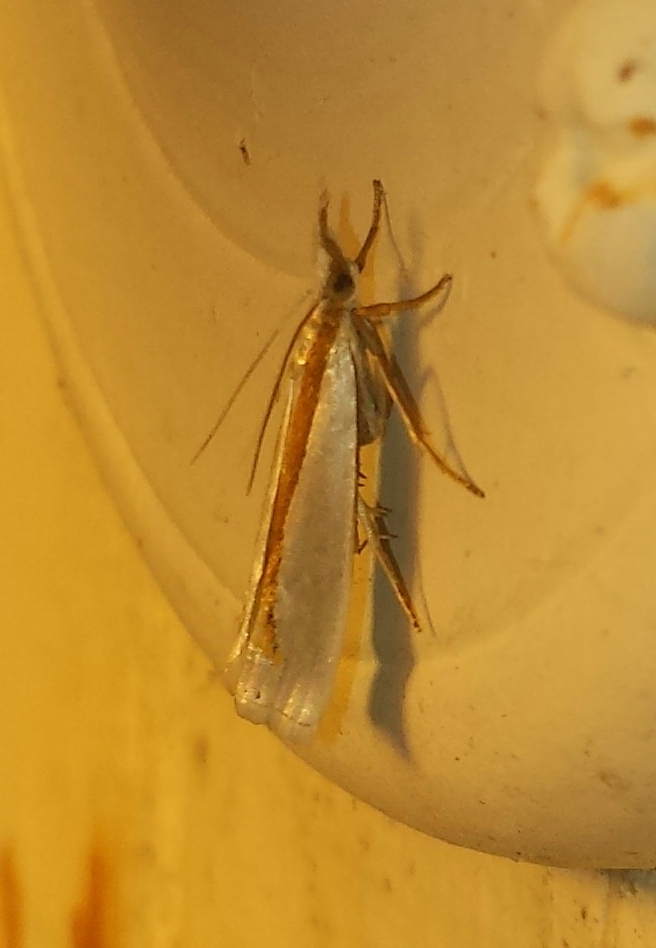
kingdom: Animalia
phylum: Arthropoda
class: Insecta
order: Lepidoptera
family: Crambidae
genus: Crambus
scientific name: Crambus girardellus
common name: Girard's grass-veneer
